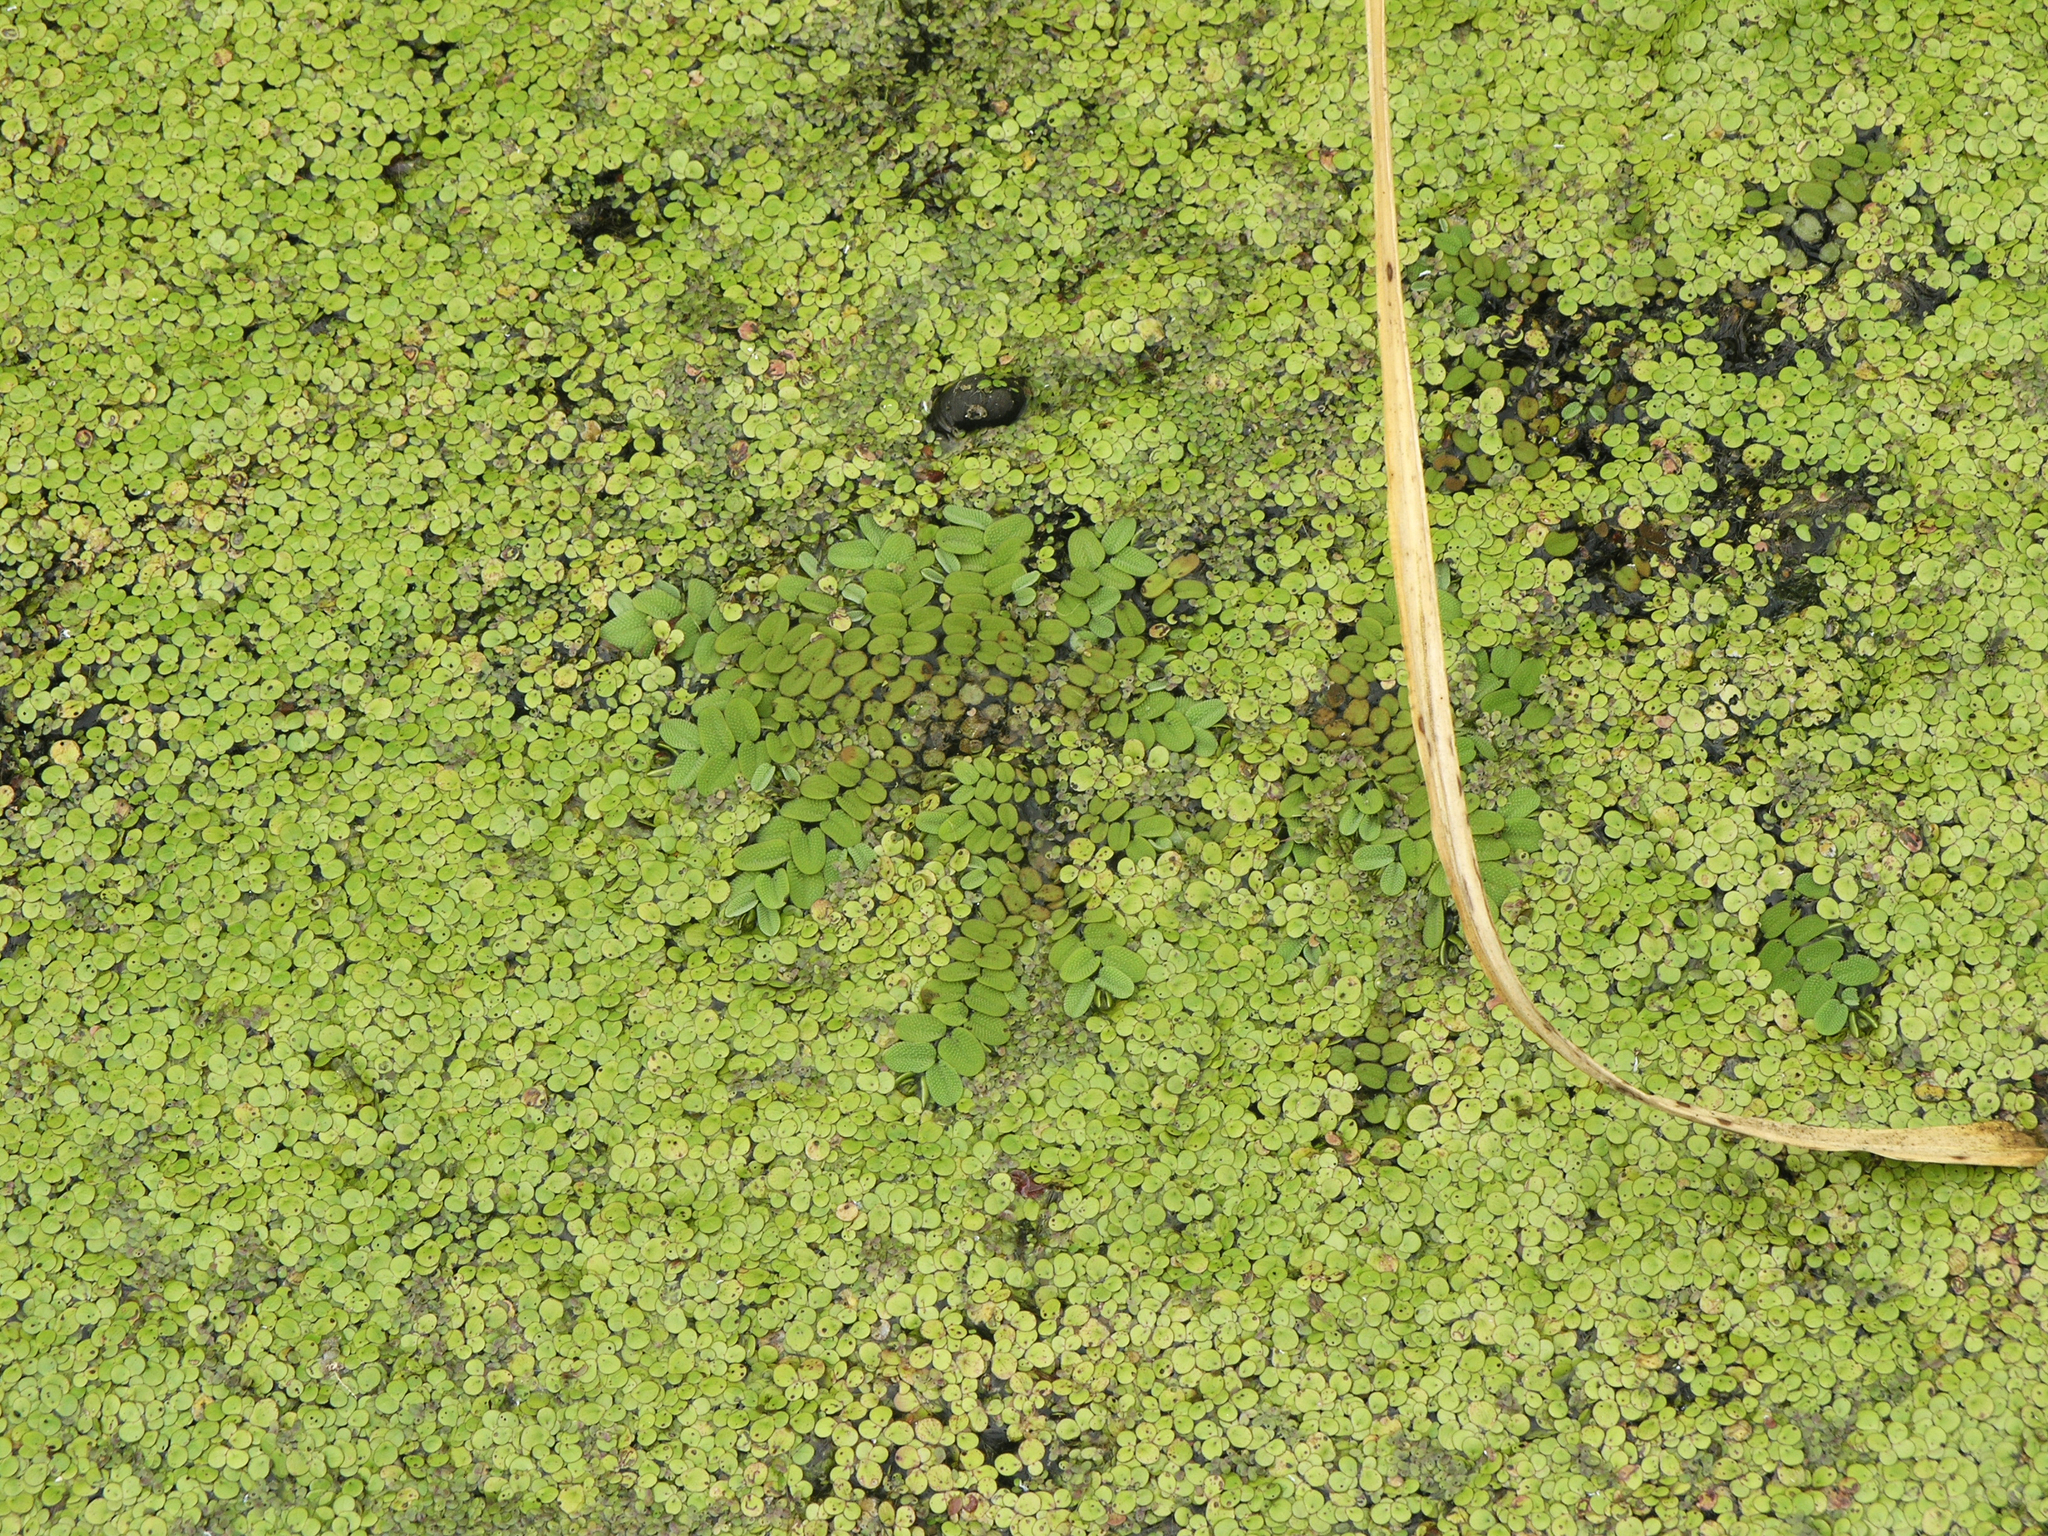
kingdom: Plantae
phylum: Tracheophyta
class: Liliopsida
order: Alismatales
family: Araceae
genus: Spirodela
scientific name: Spirodela polyrhiza
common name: Great duckweed
